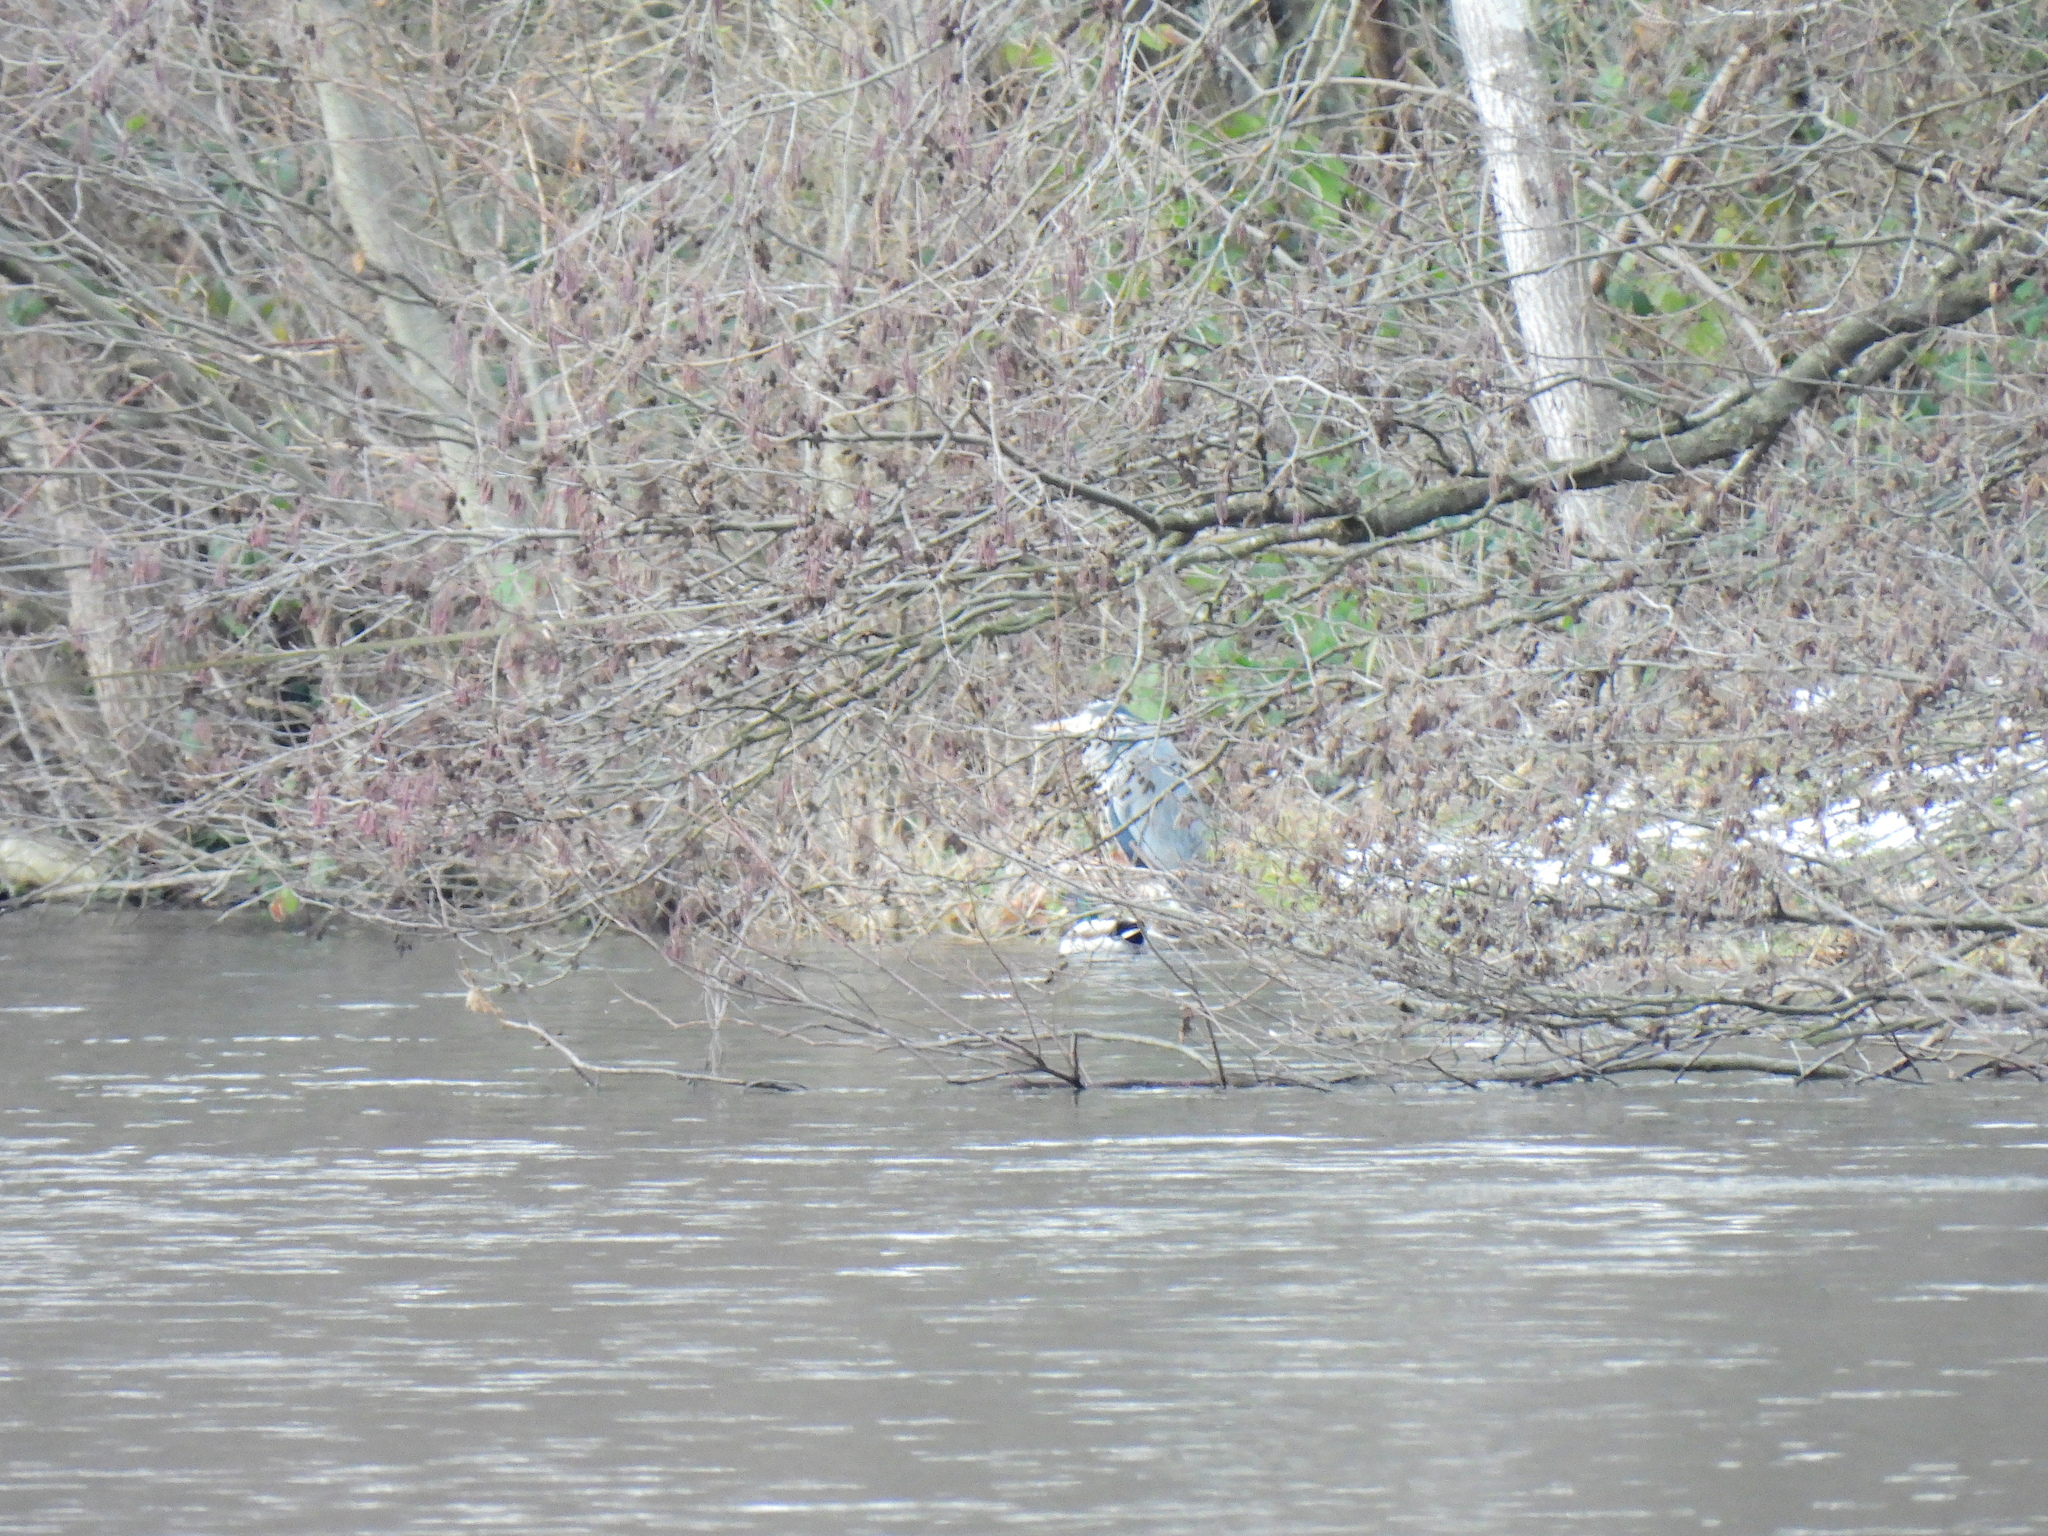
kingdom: Animalia
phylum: Chordata
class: Aves
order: Pelecaniformes
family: Ardeidae
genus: Ardea
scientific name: Ardea cinerea
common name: Grey heron
